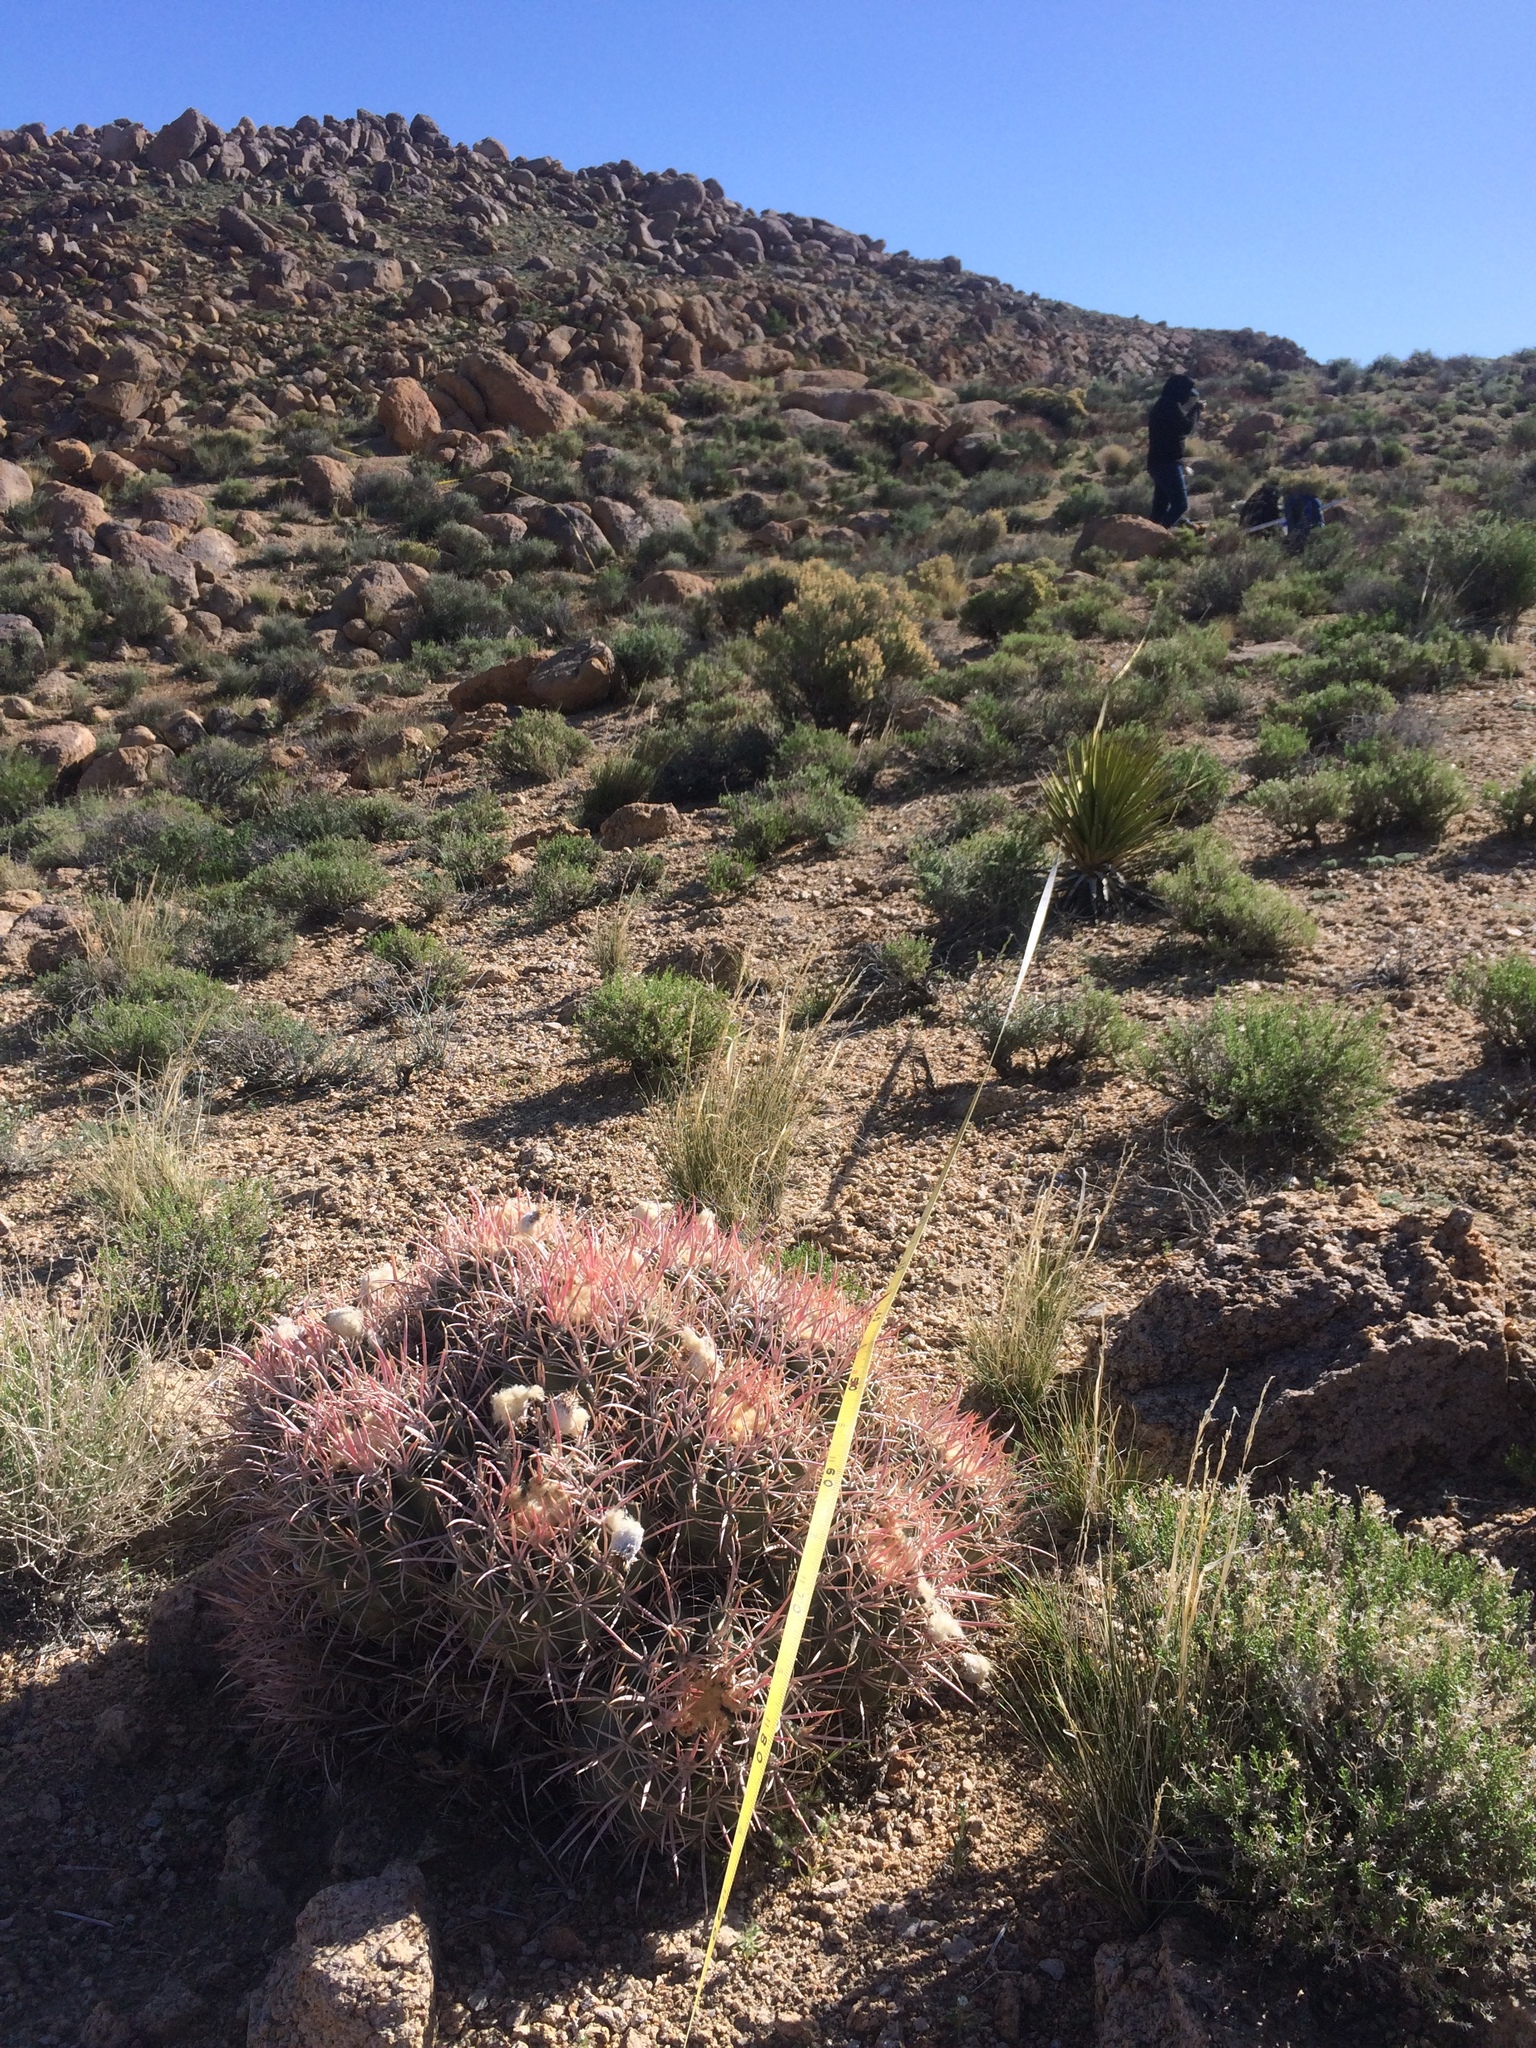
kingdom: Plantae
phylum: Tracheophyta
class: Magnoliopsida
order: Caryophyllales
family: Cactaceae
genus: Echinocactus
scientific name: Echinocactus polycephalus
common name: Cottontop cactus
